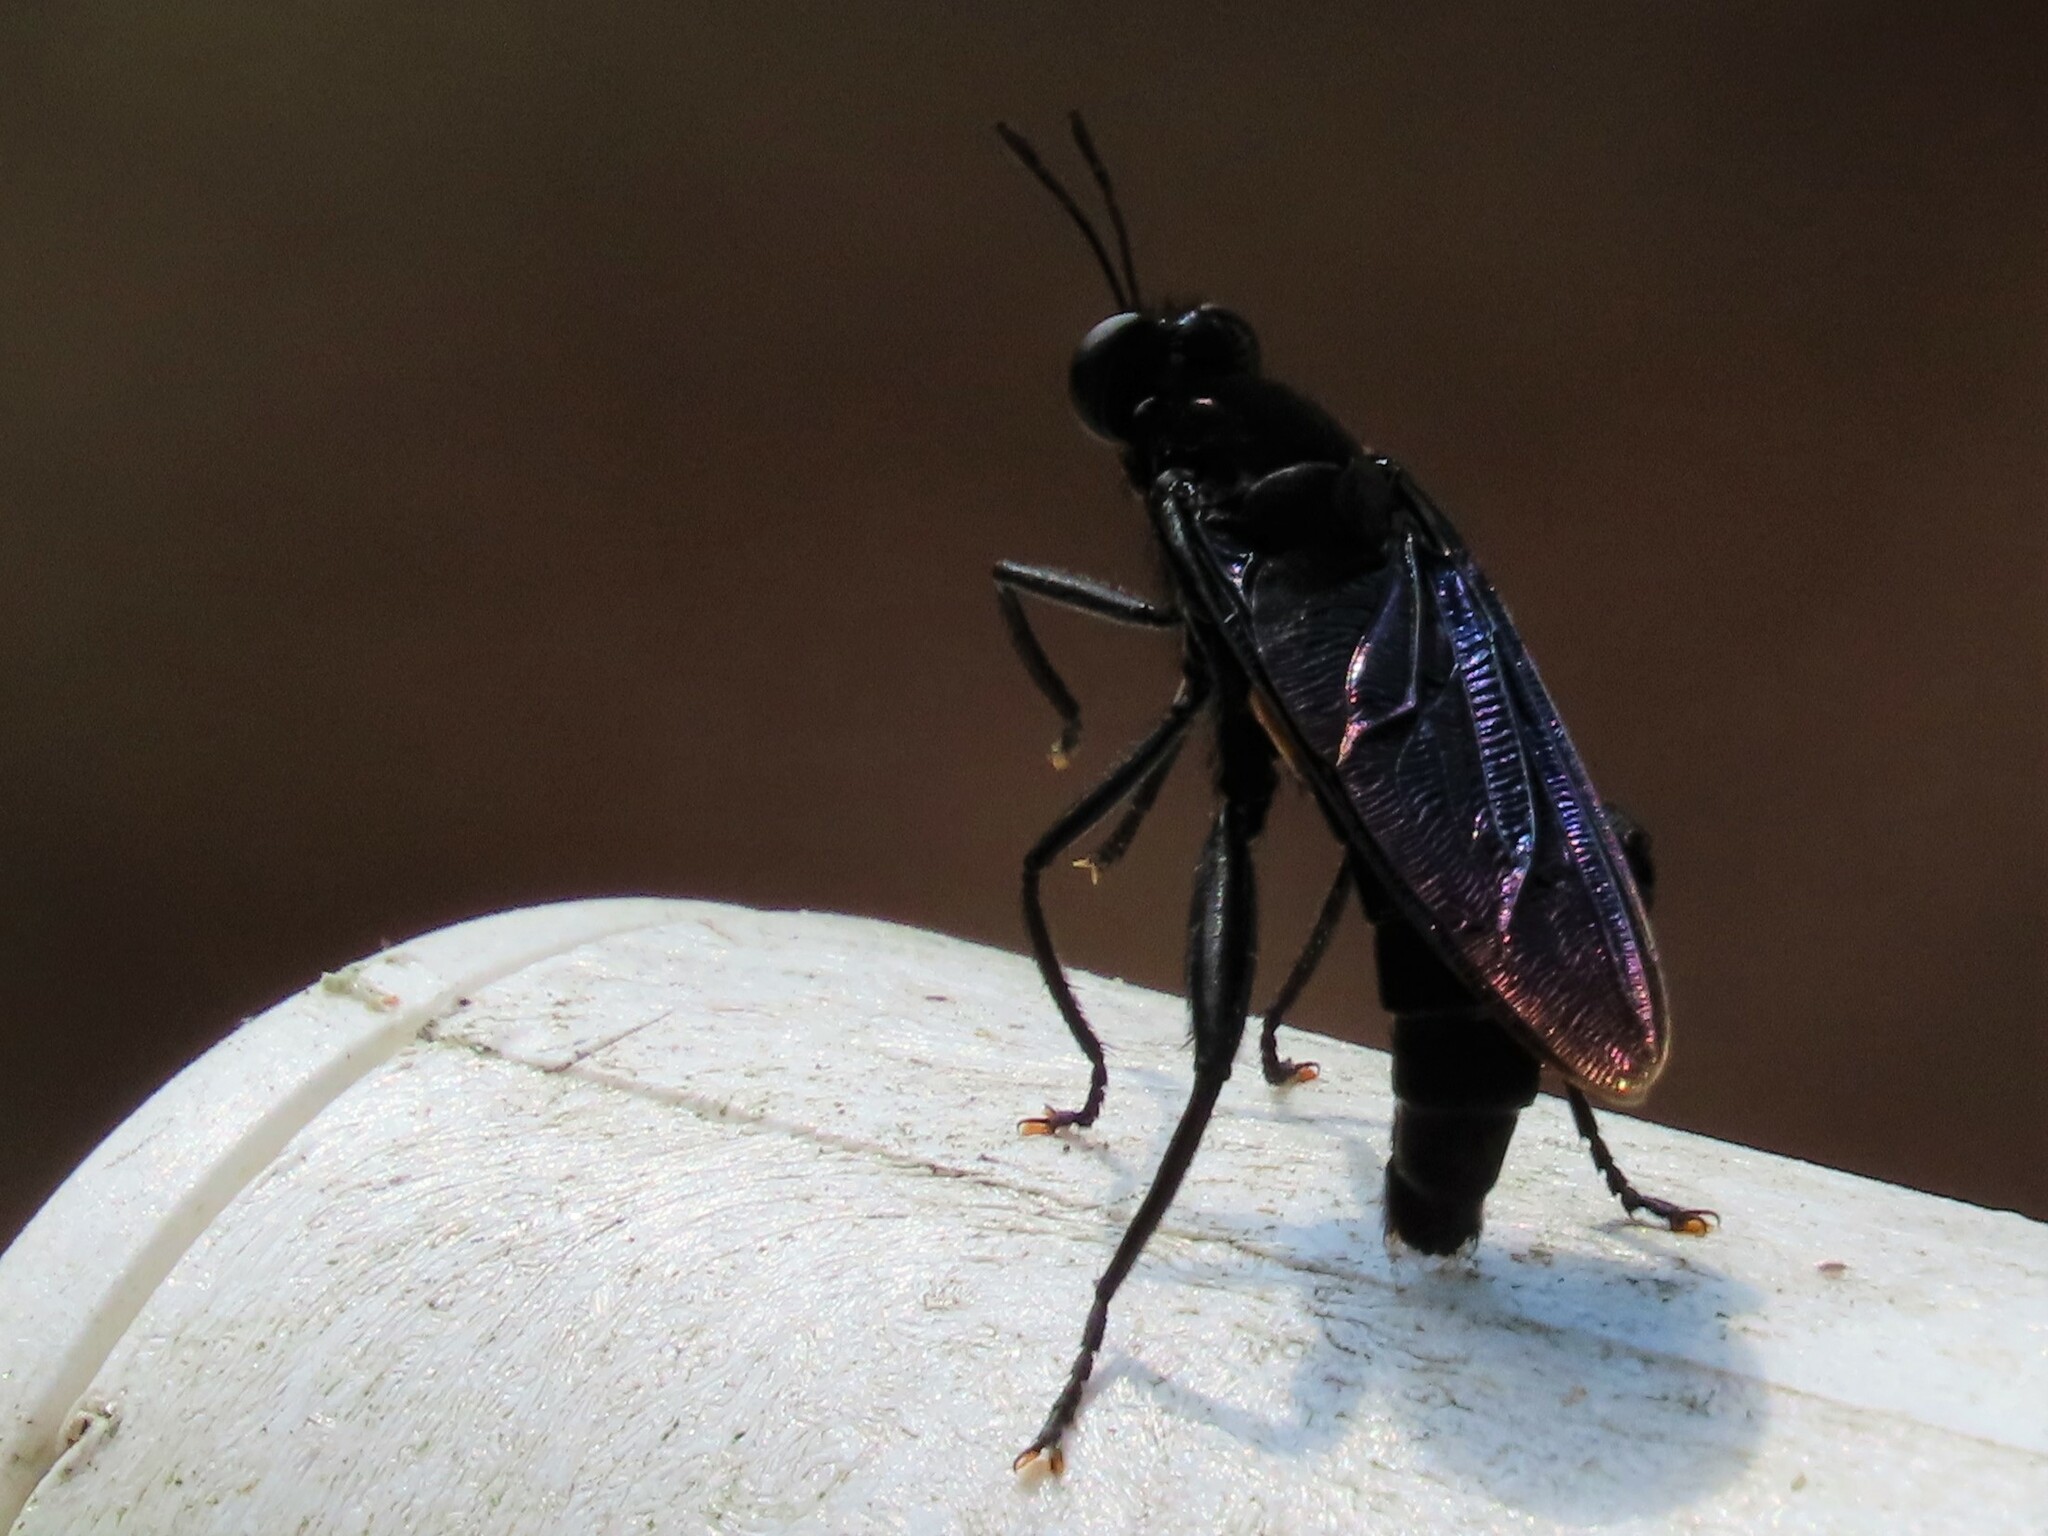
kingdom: Animalia
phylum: Arthropoda
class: Insecta
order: Diptera
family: Mydidae
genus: Mydas
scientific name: Mydas clavatus
